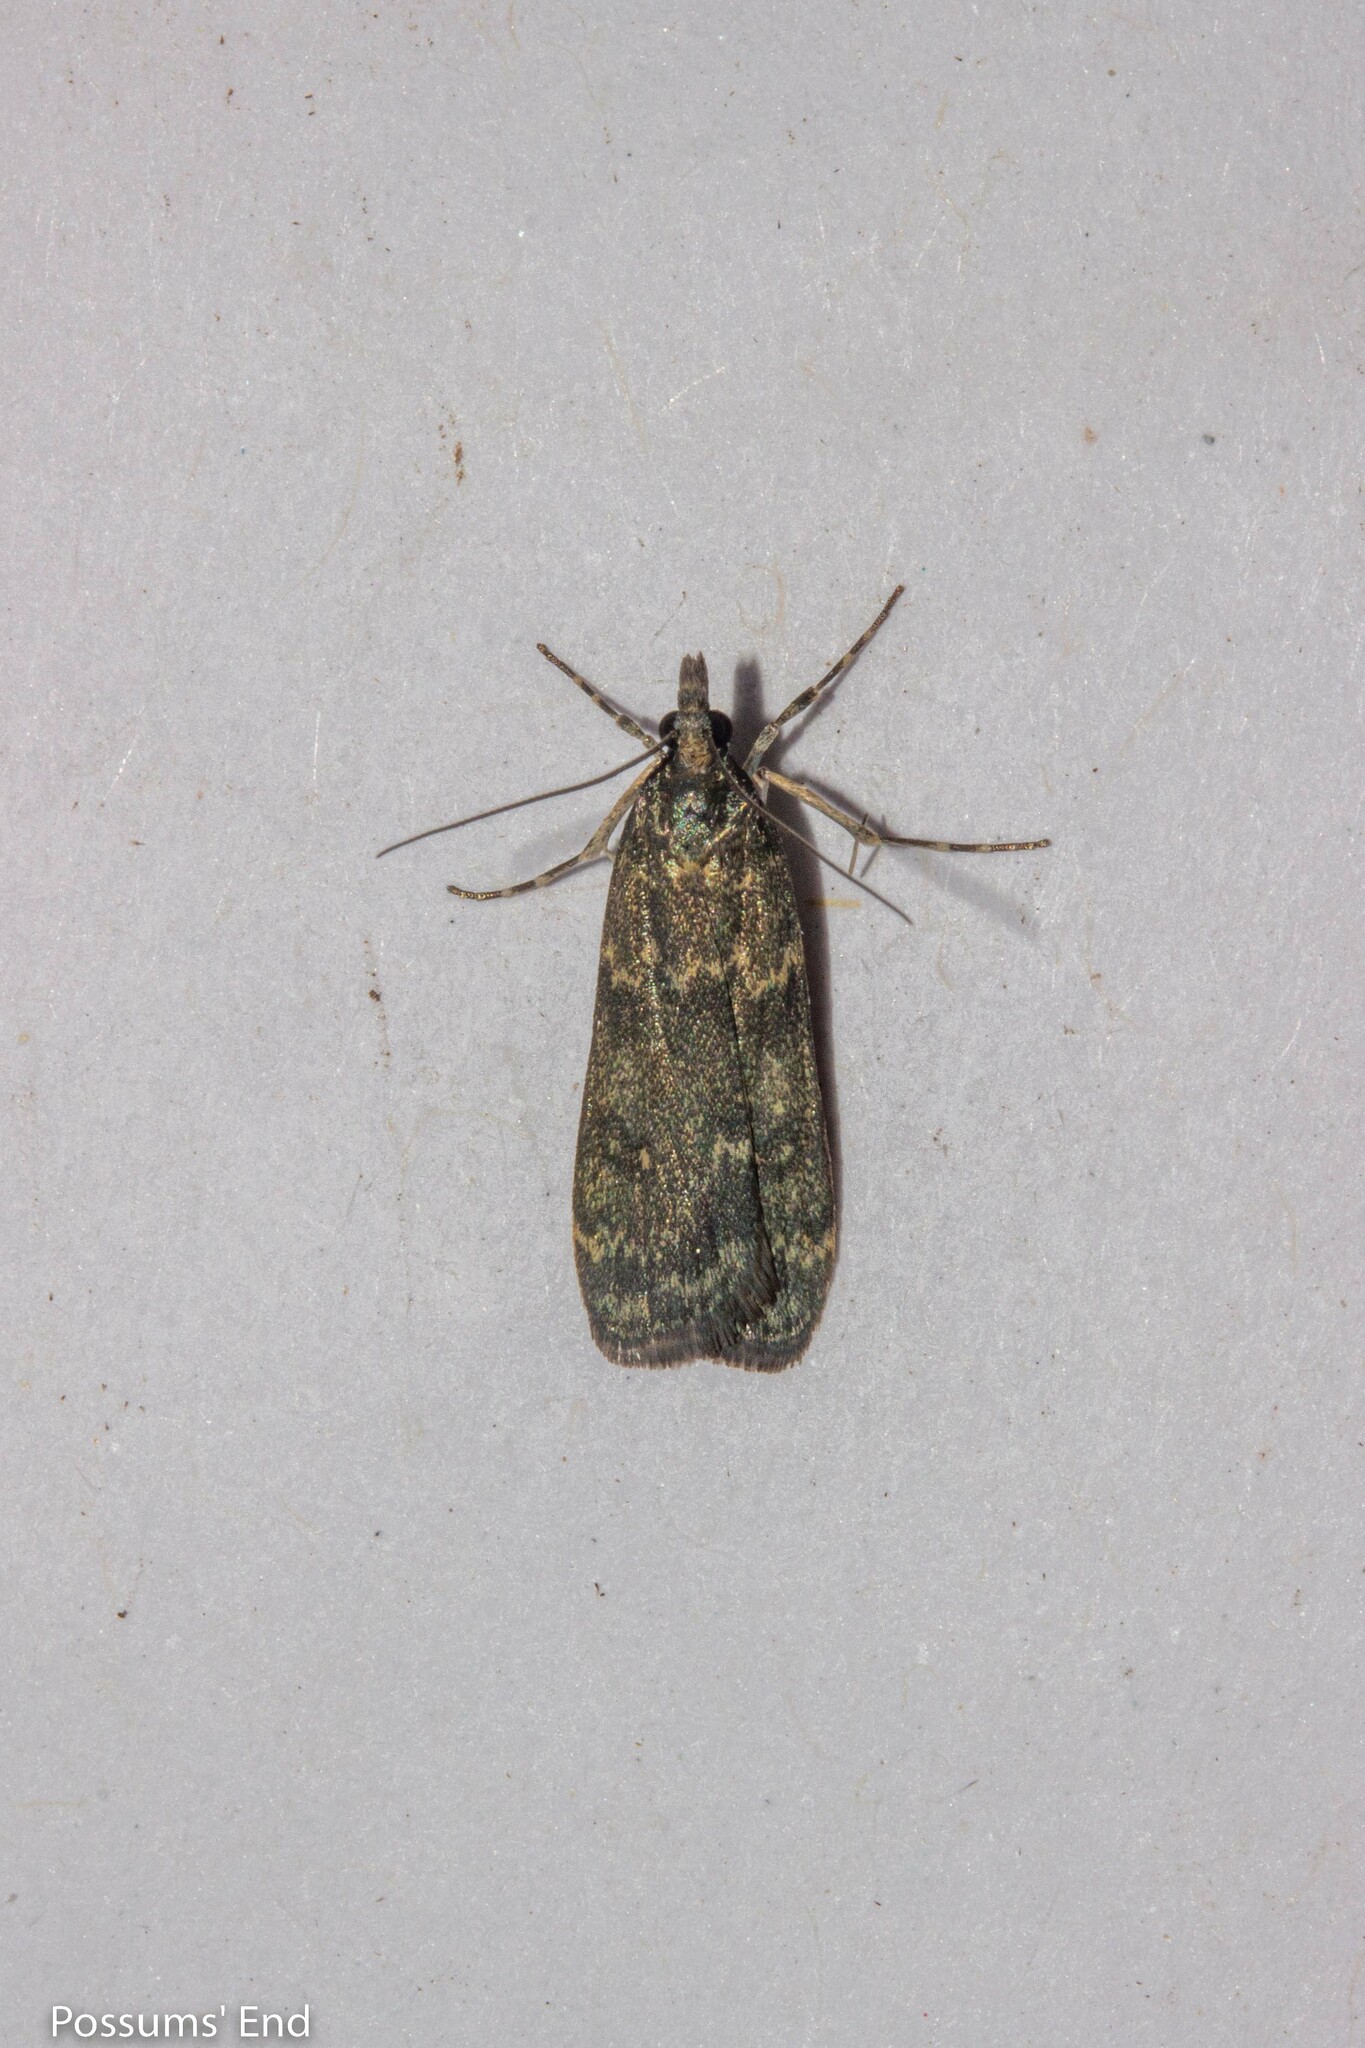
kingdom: Animalia
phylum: Arthropoda
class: Insecta
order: Lepidoptera
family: Crambidae
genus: Eudonia
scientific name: Eudonia cataxesta
